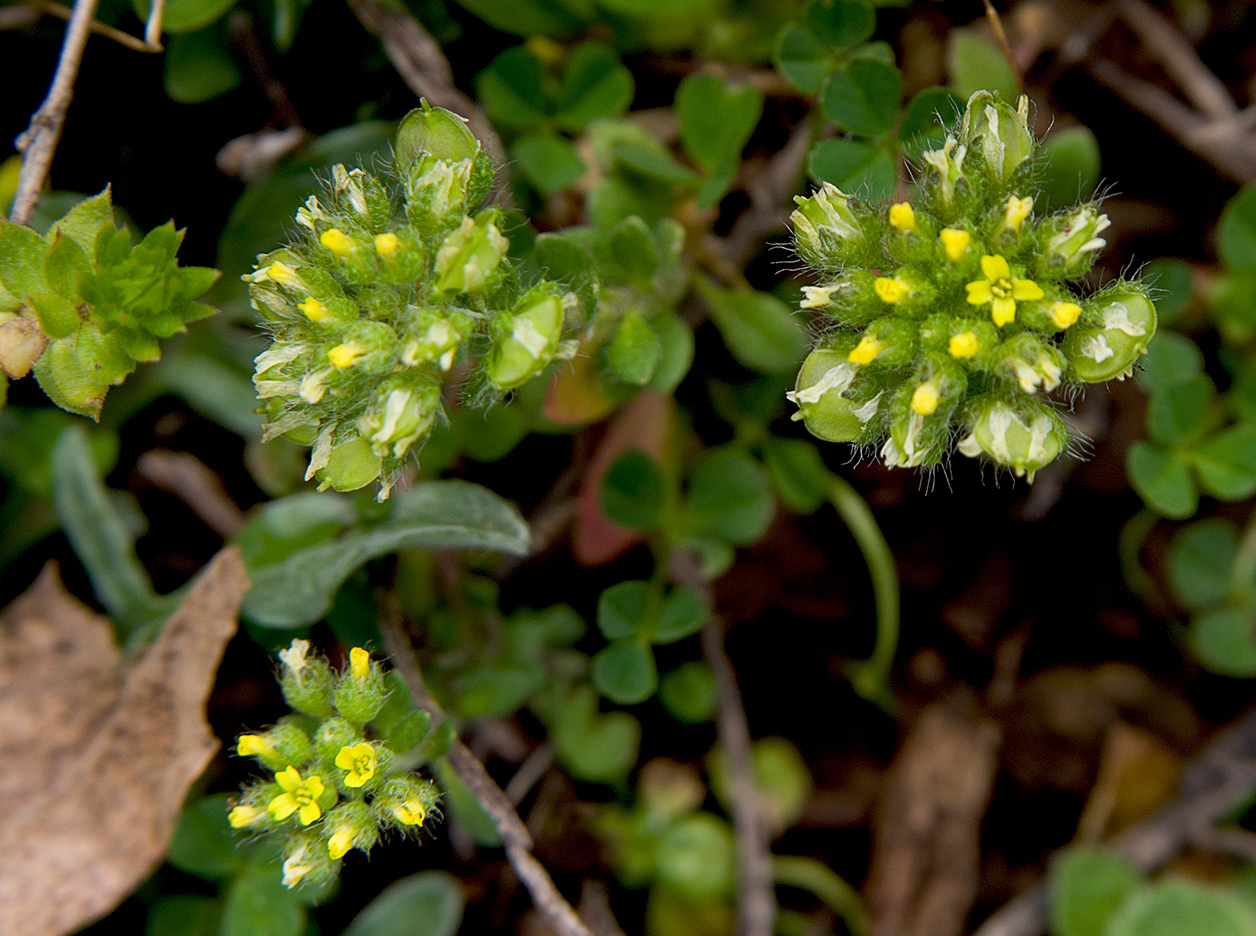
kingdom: Plantae
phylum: Tracheophyta
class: Magnoliopsida
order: Brassicales
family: Brassicaceae
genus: Alyssum
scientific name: Alyssum minutum
